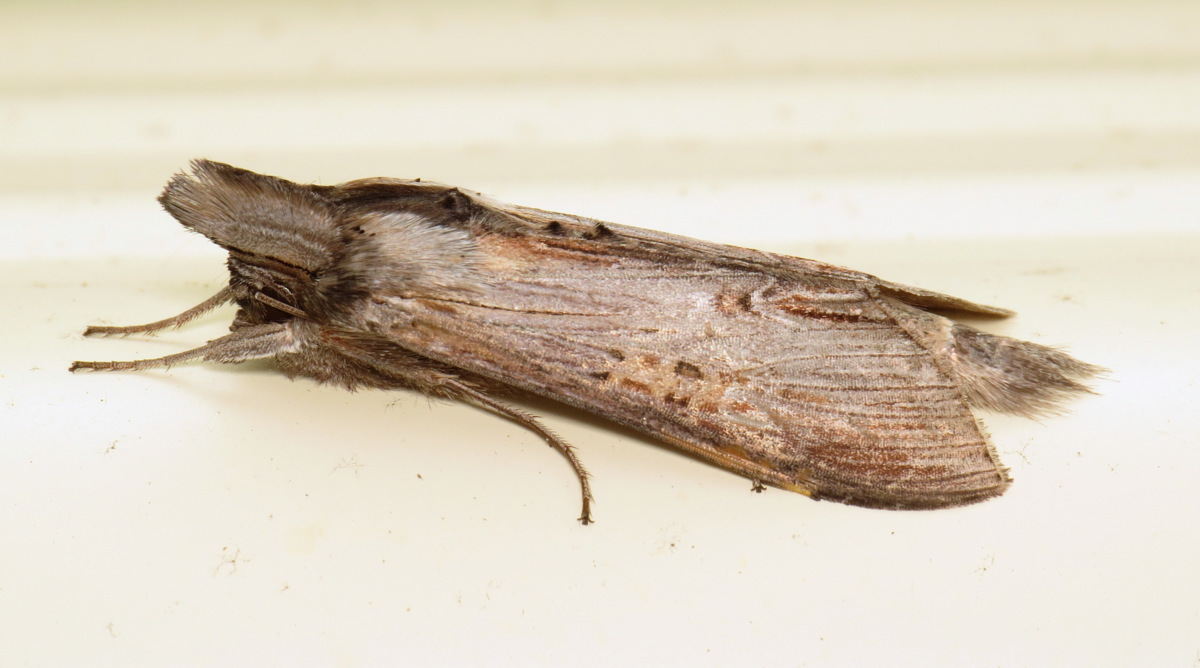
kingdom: Animalia
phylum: Arthropoda
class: Insecta
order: Lepidoptera
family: Noctuidae
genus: Cucullia
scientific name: Cucullia asteroides
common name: Asteroid moth
